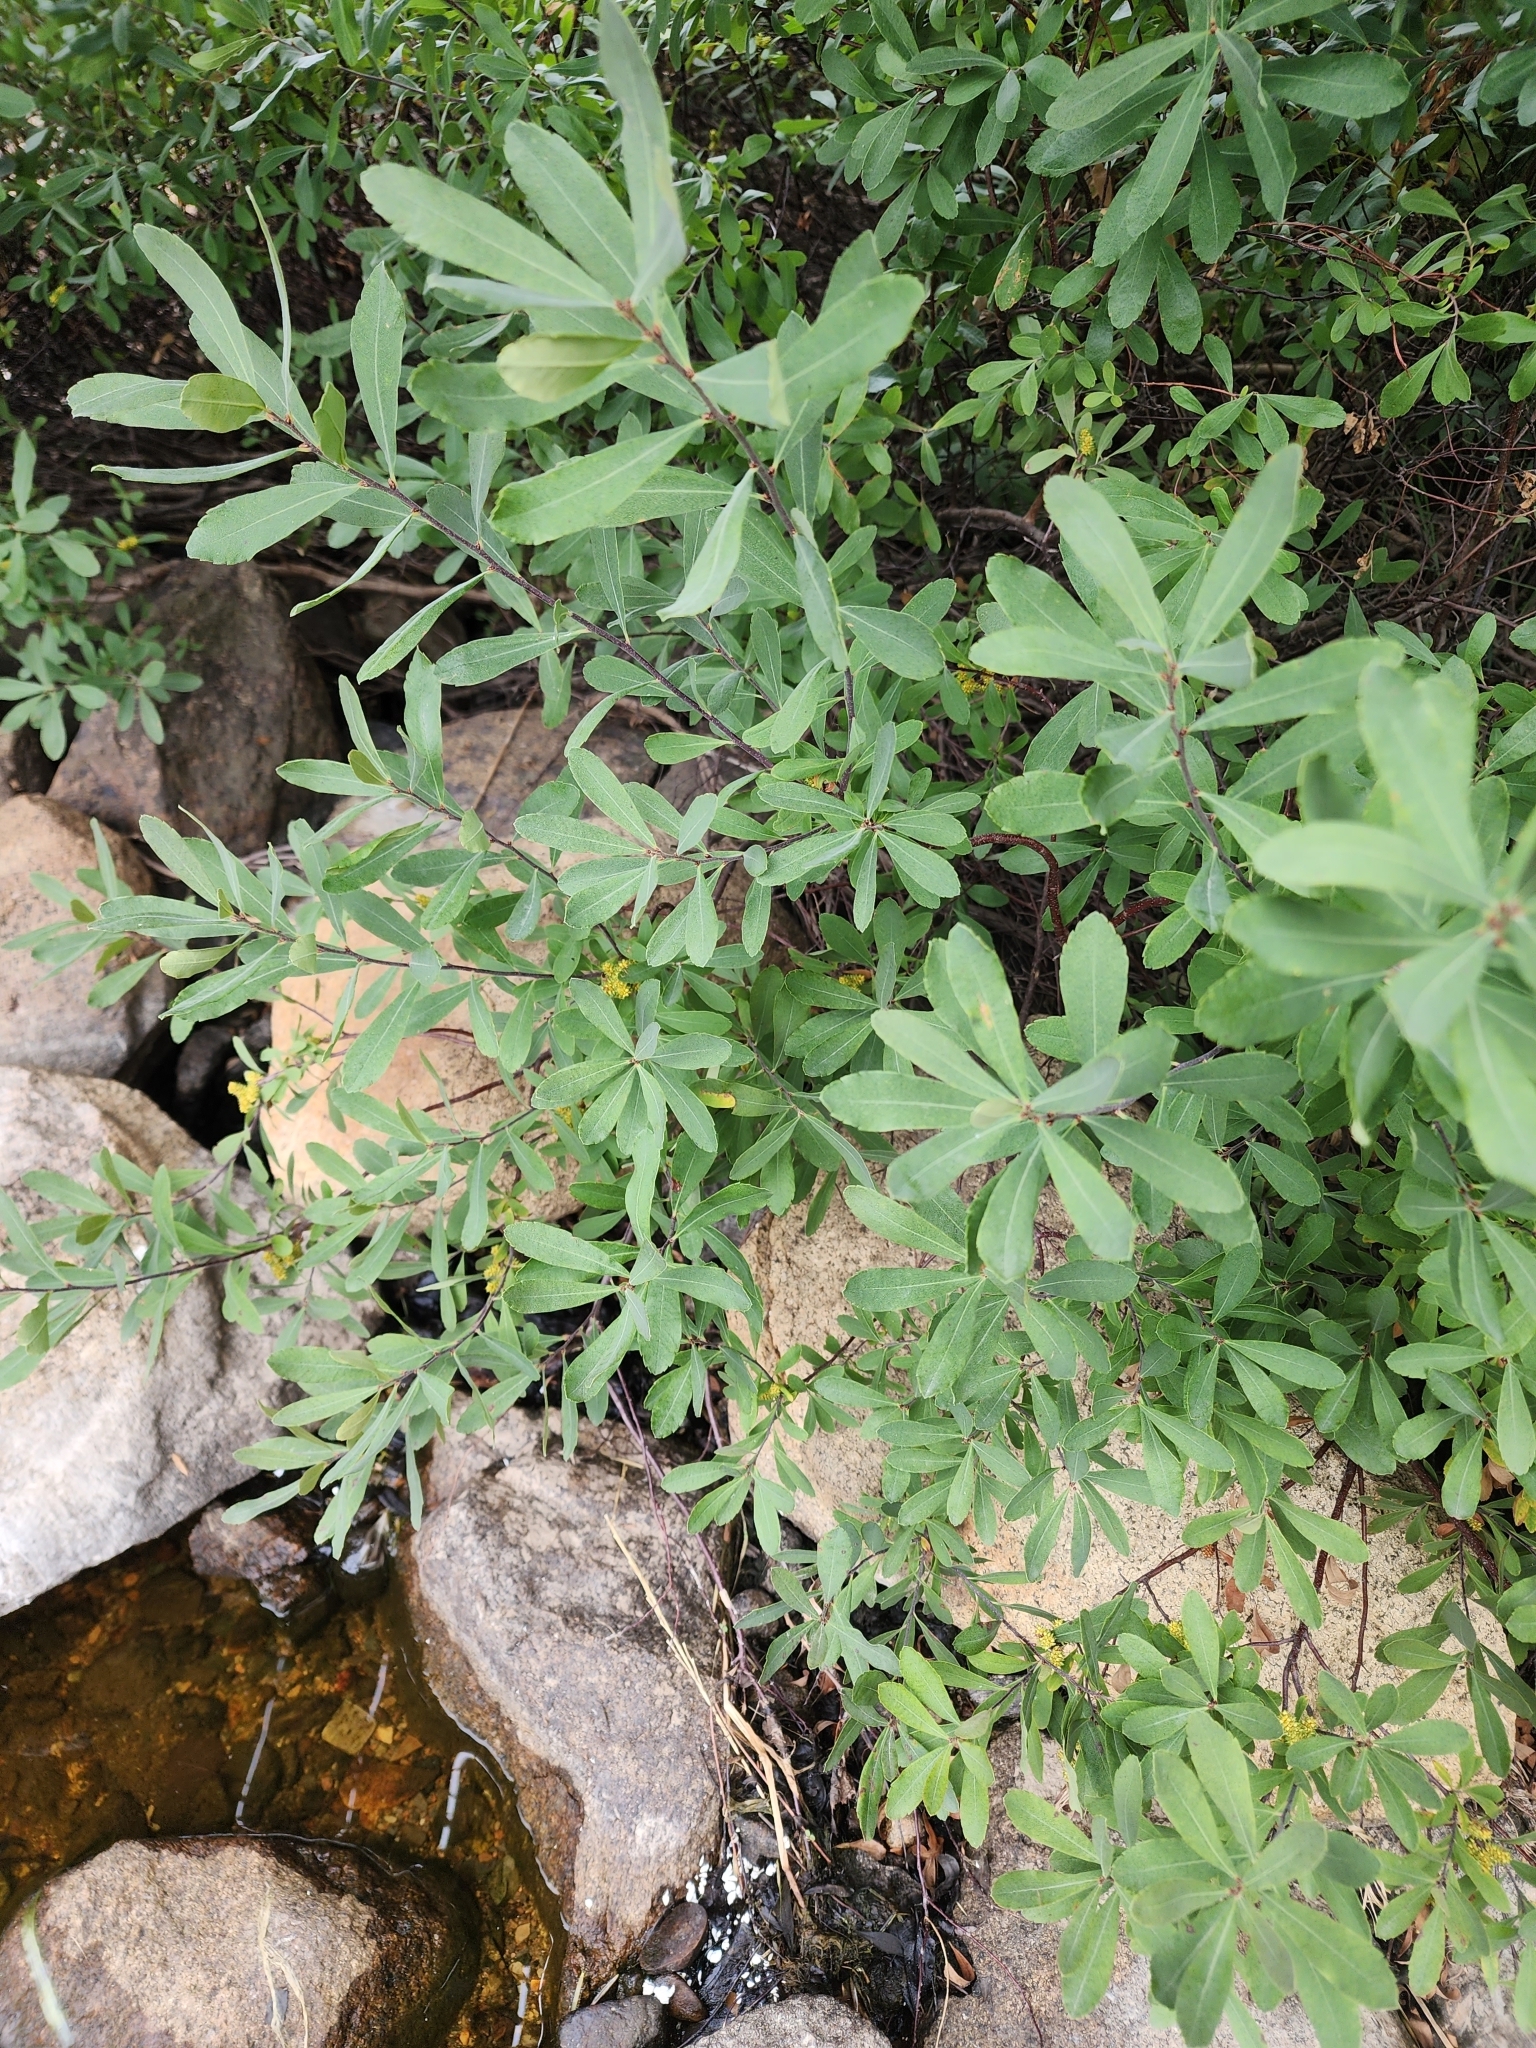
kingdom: Plantae
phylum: Tracheophyta
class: Magnoliopsida
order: Fagales
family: Myricaceae
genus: Myrica
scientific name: Myrica gale
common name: Sweet gale
